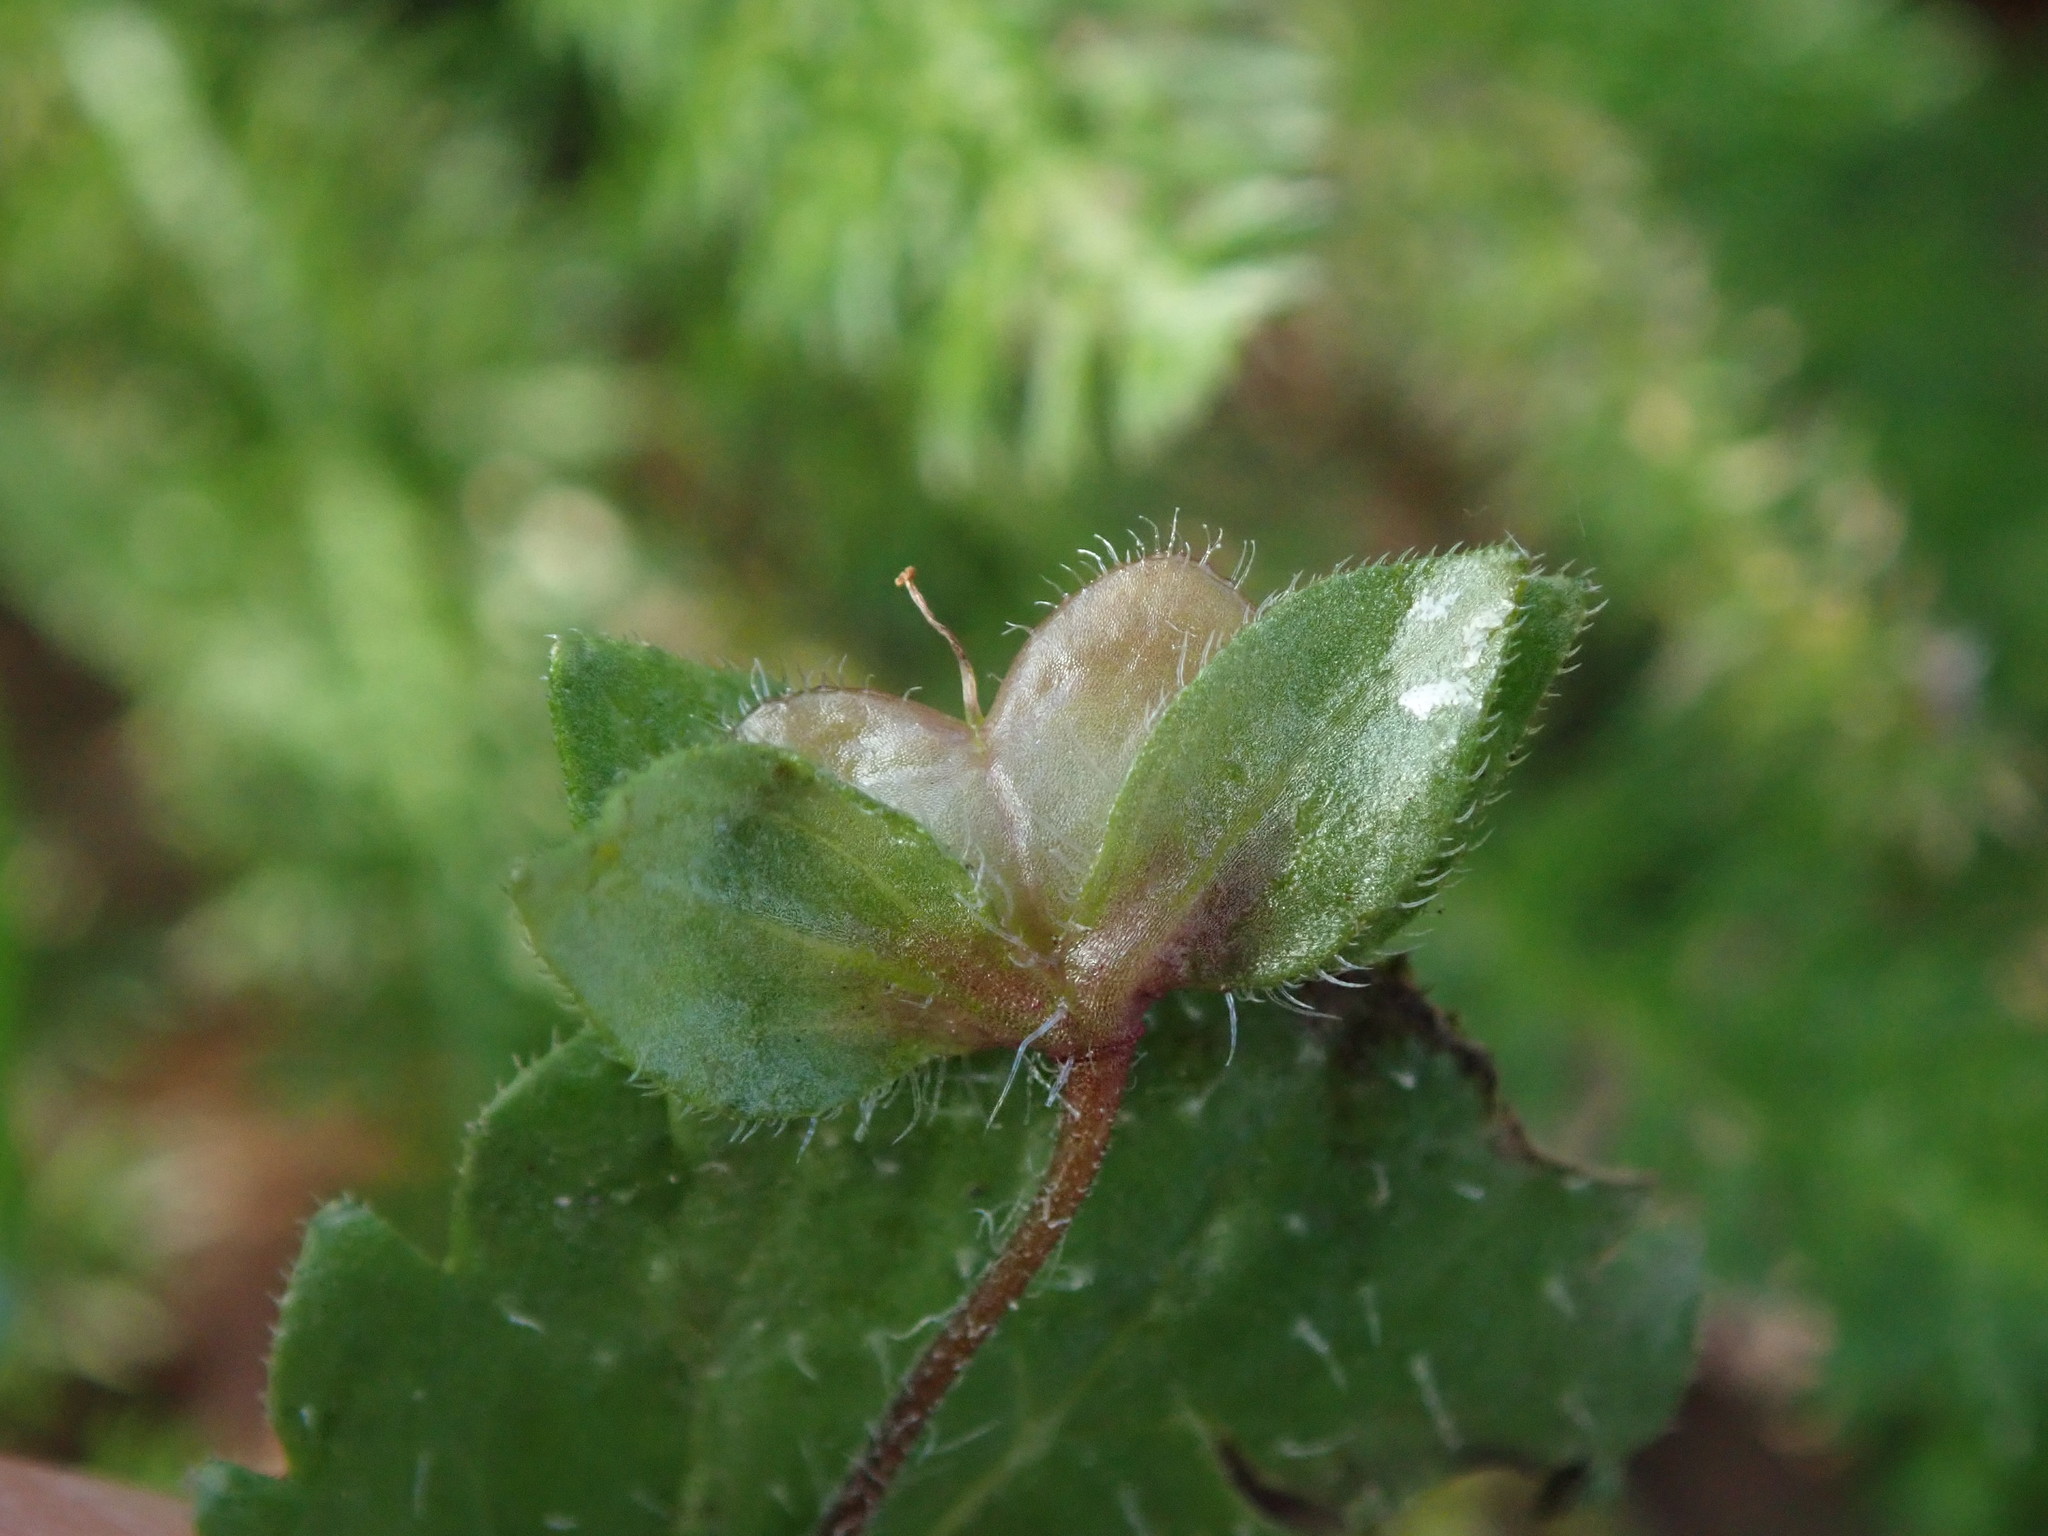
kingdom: Plantae
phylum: Tracheophyta
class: Magnoliopsida
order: Lamiales
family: Plantaginaceae
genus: Veronica
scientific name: Veronica persica
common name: Common field-speedwell
